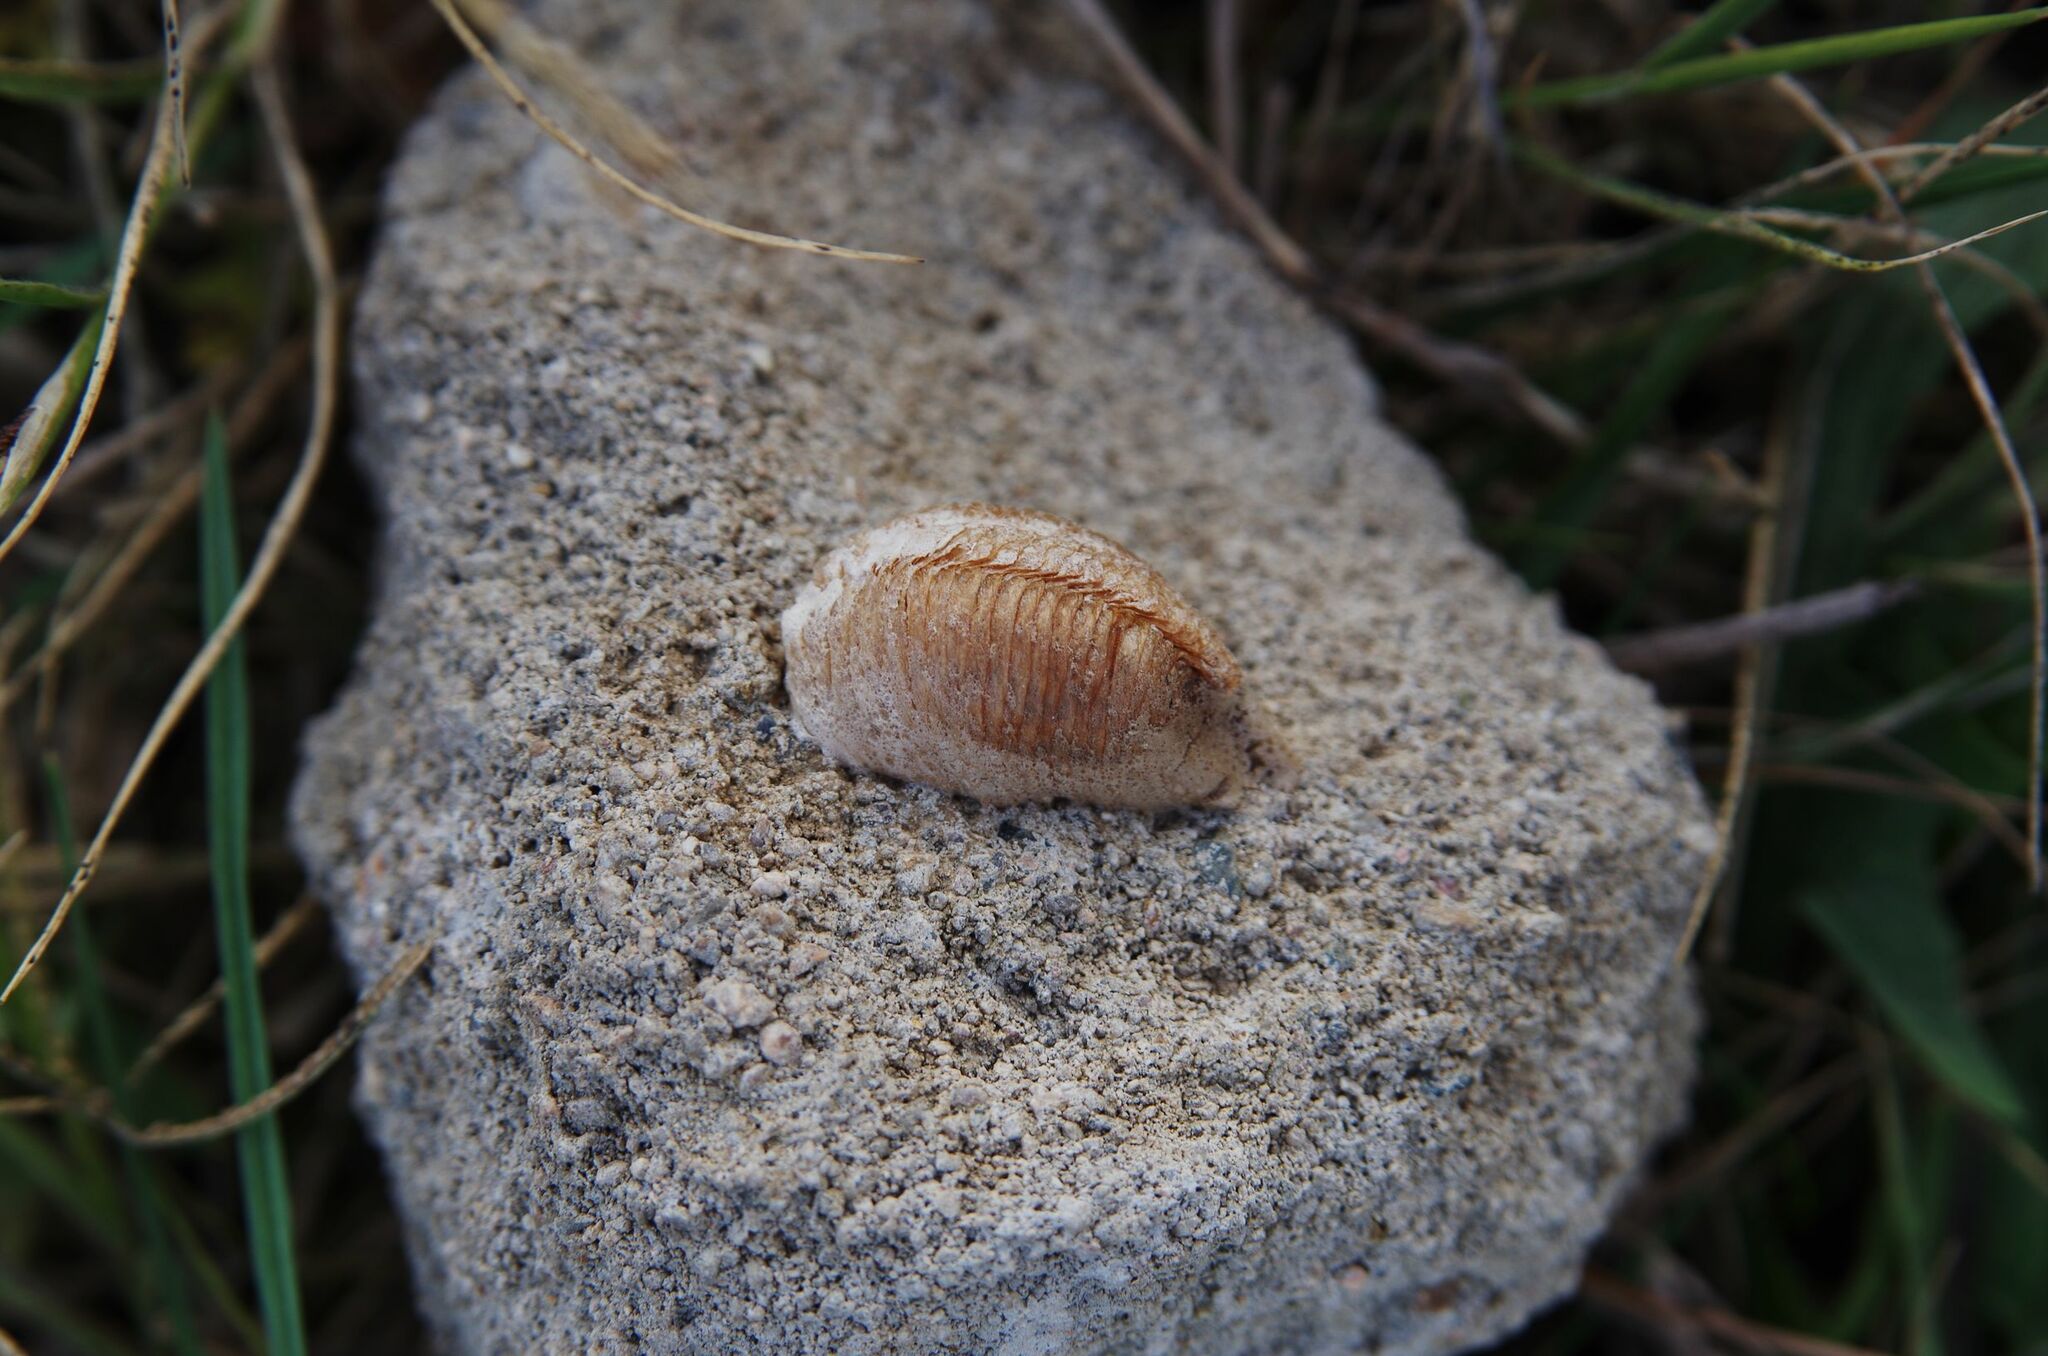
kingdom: Animalia
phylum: Arthropoda
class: Insecta
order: Mantodea
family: Mantidae
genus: Mantis
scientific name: Mantis religiosa
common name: Praying mantis
